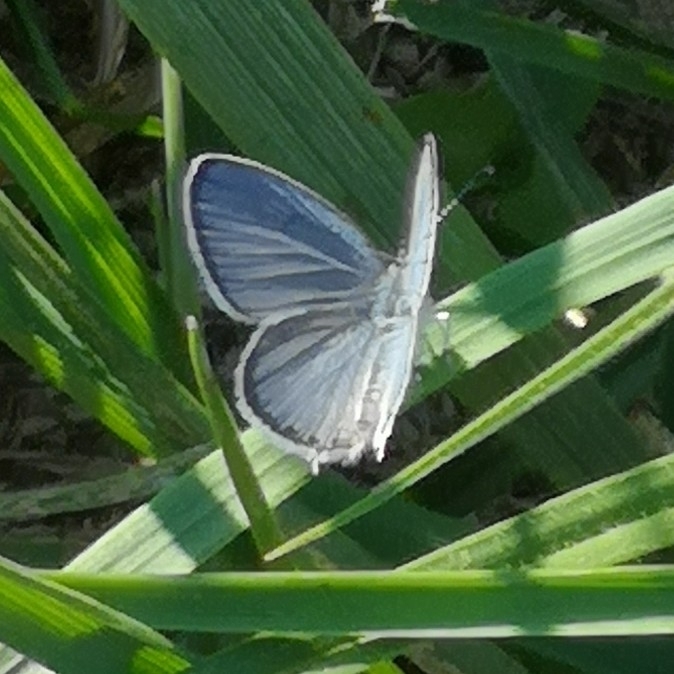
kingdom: Animalia
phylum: Arthropoda
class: Insecta
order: Lepidoptera
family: Lycaenidae
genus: Elkalyce
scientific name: Elkalyce argiades
